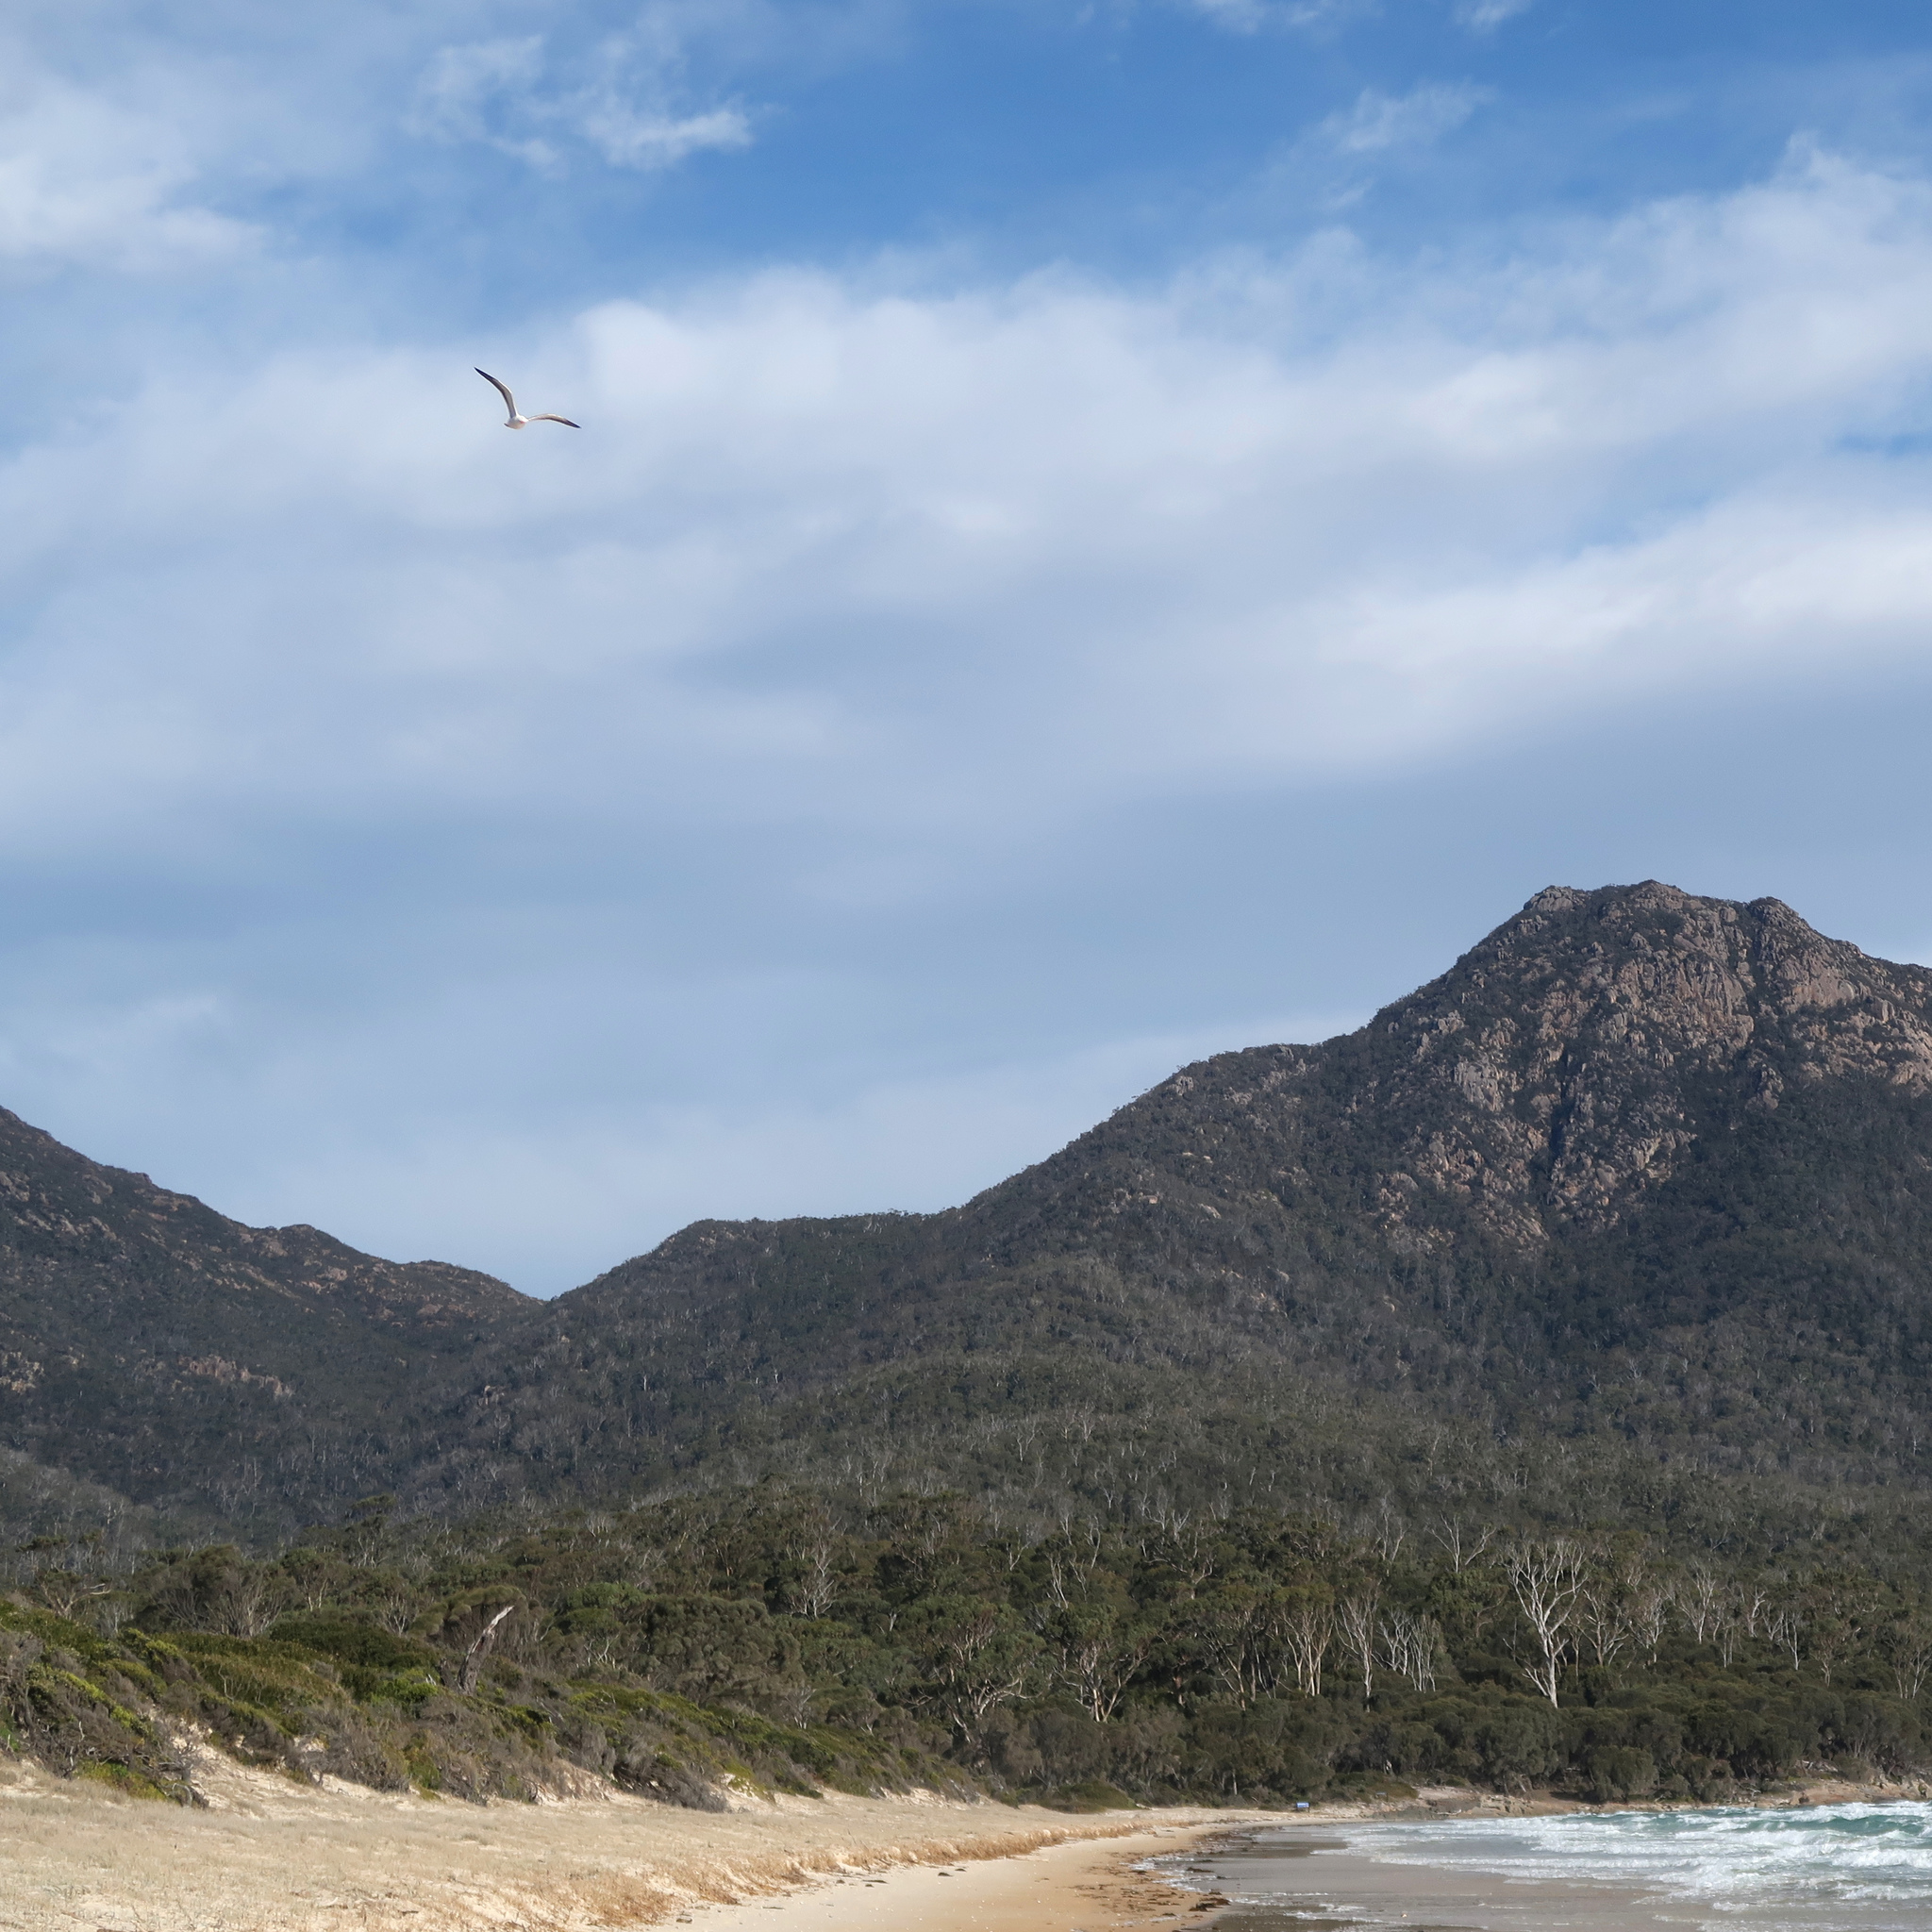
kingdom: Animalia
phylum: Chordata
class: Aves
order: Charadriiformes
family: Laridae
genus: Larus
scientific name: Larus pacificus
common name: Pacific gull
